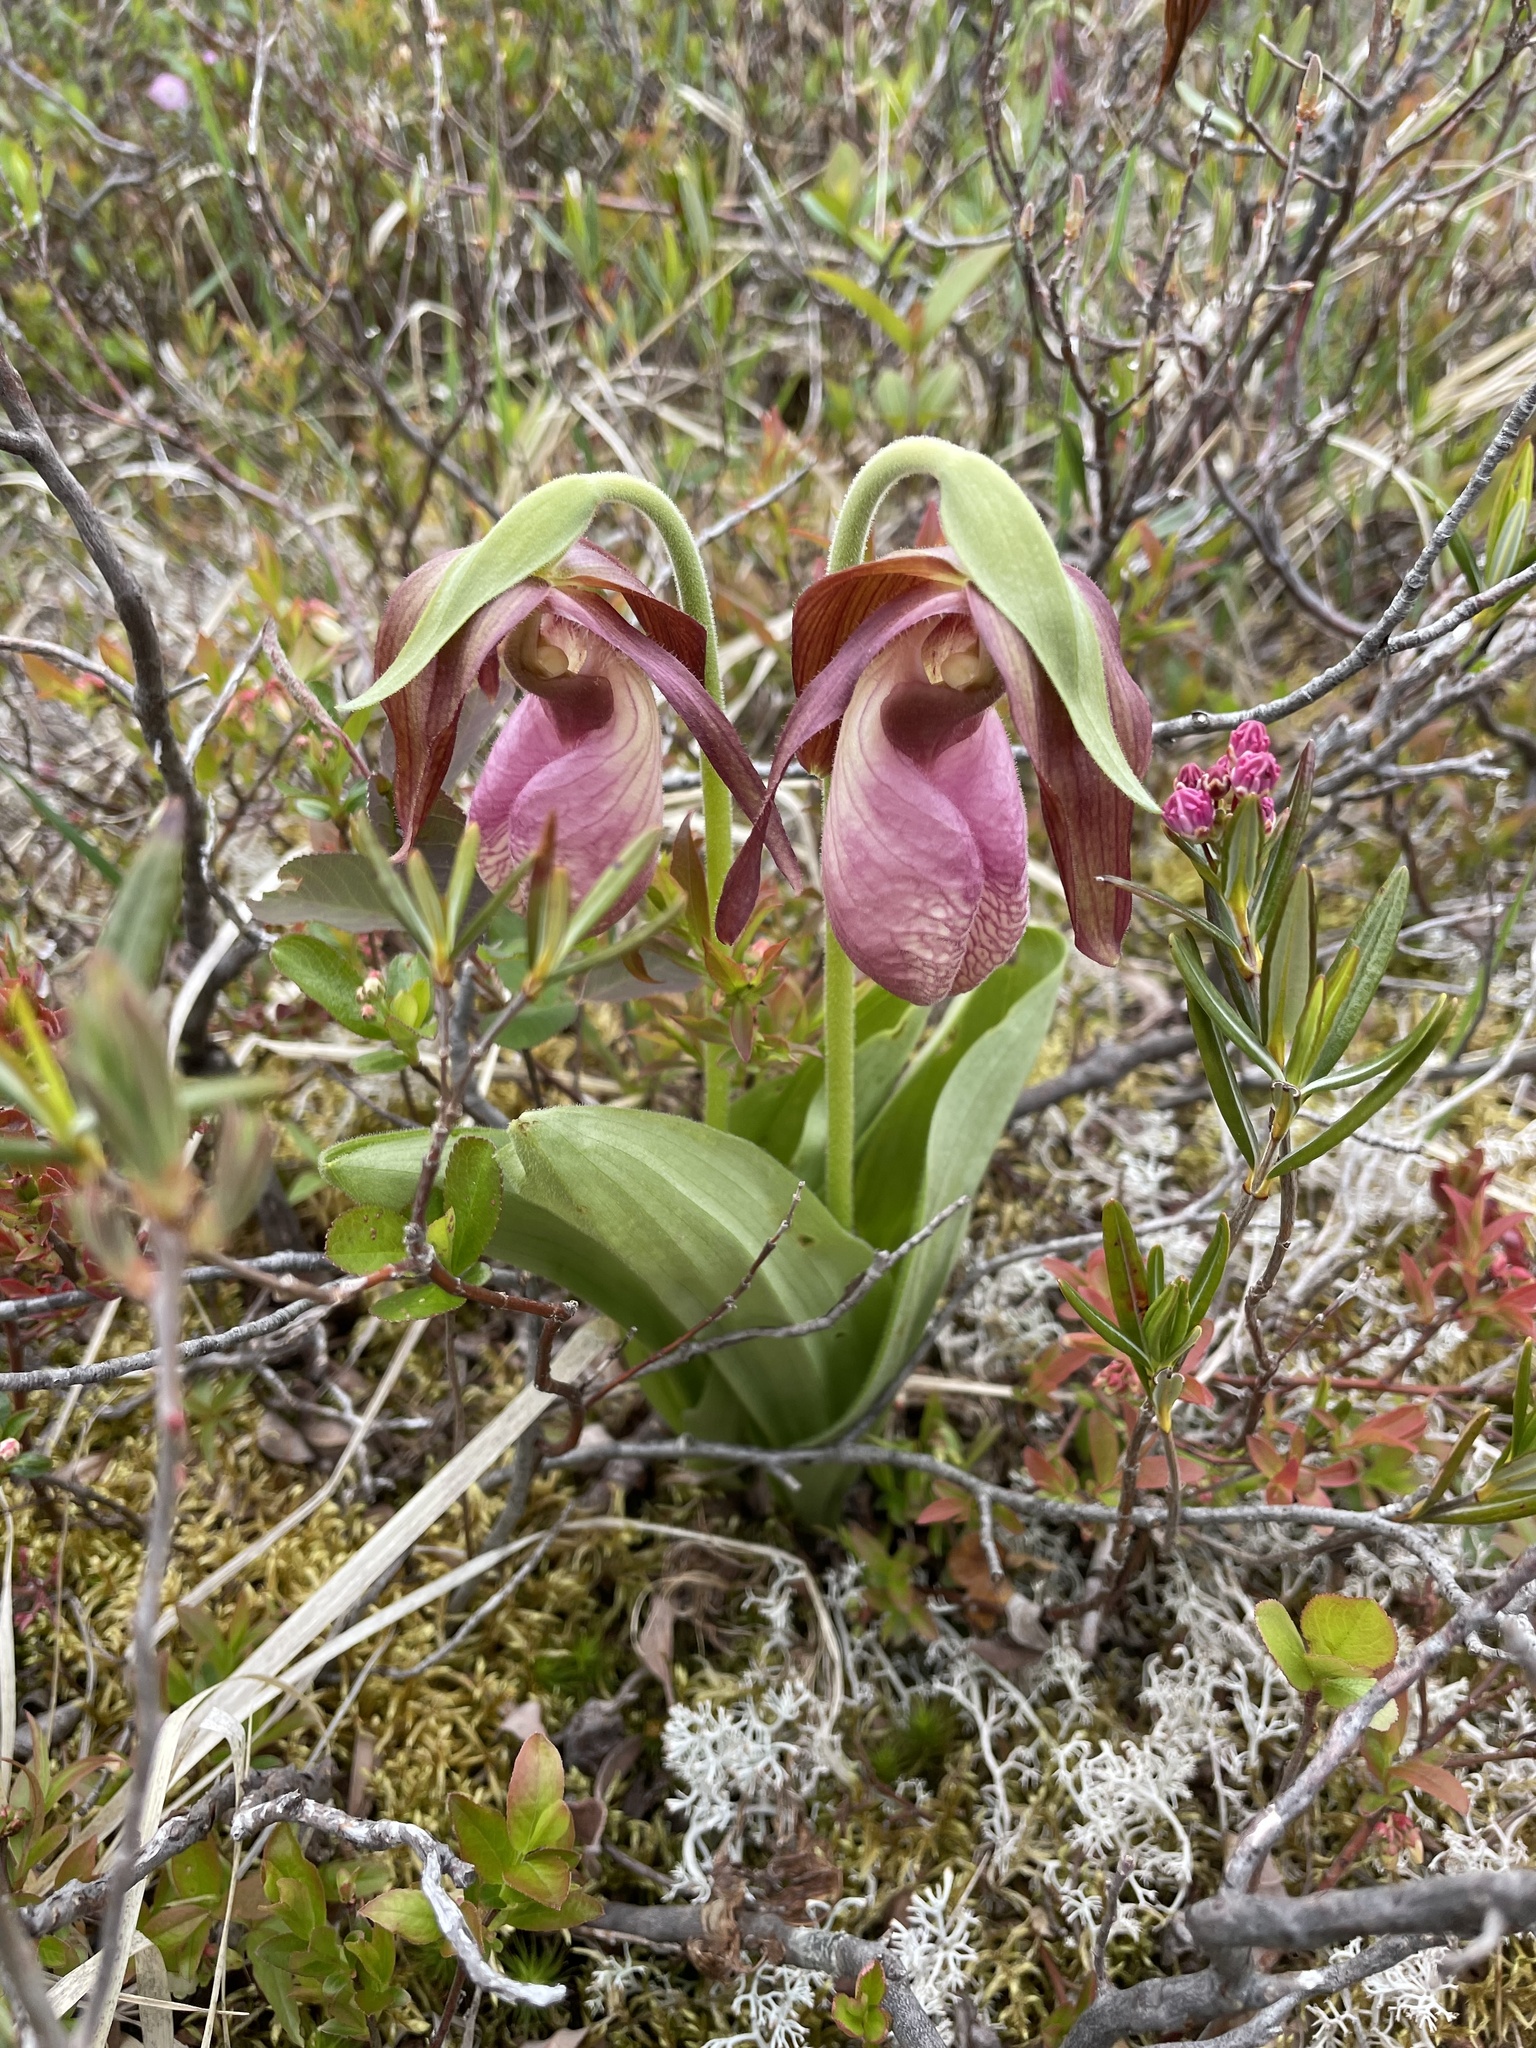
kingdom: Plantae
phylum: Tracheophyta
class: Liliopsida
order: Asparagales
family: Orchidaceae
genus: Cypripedium
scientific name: Cypripedium acaule
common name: Pink lady's-slipper
